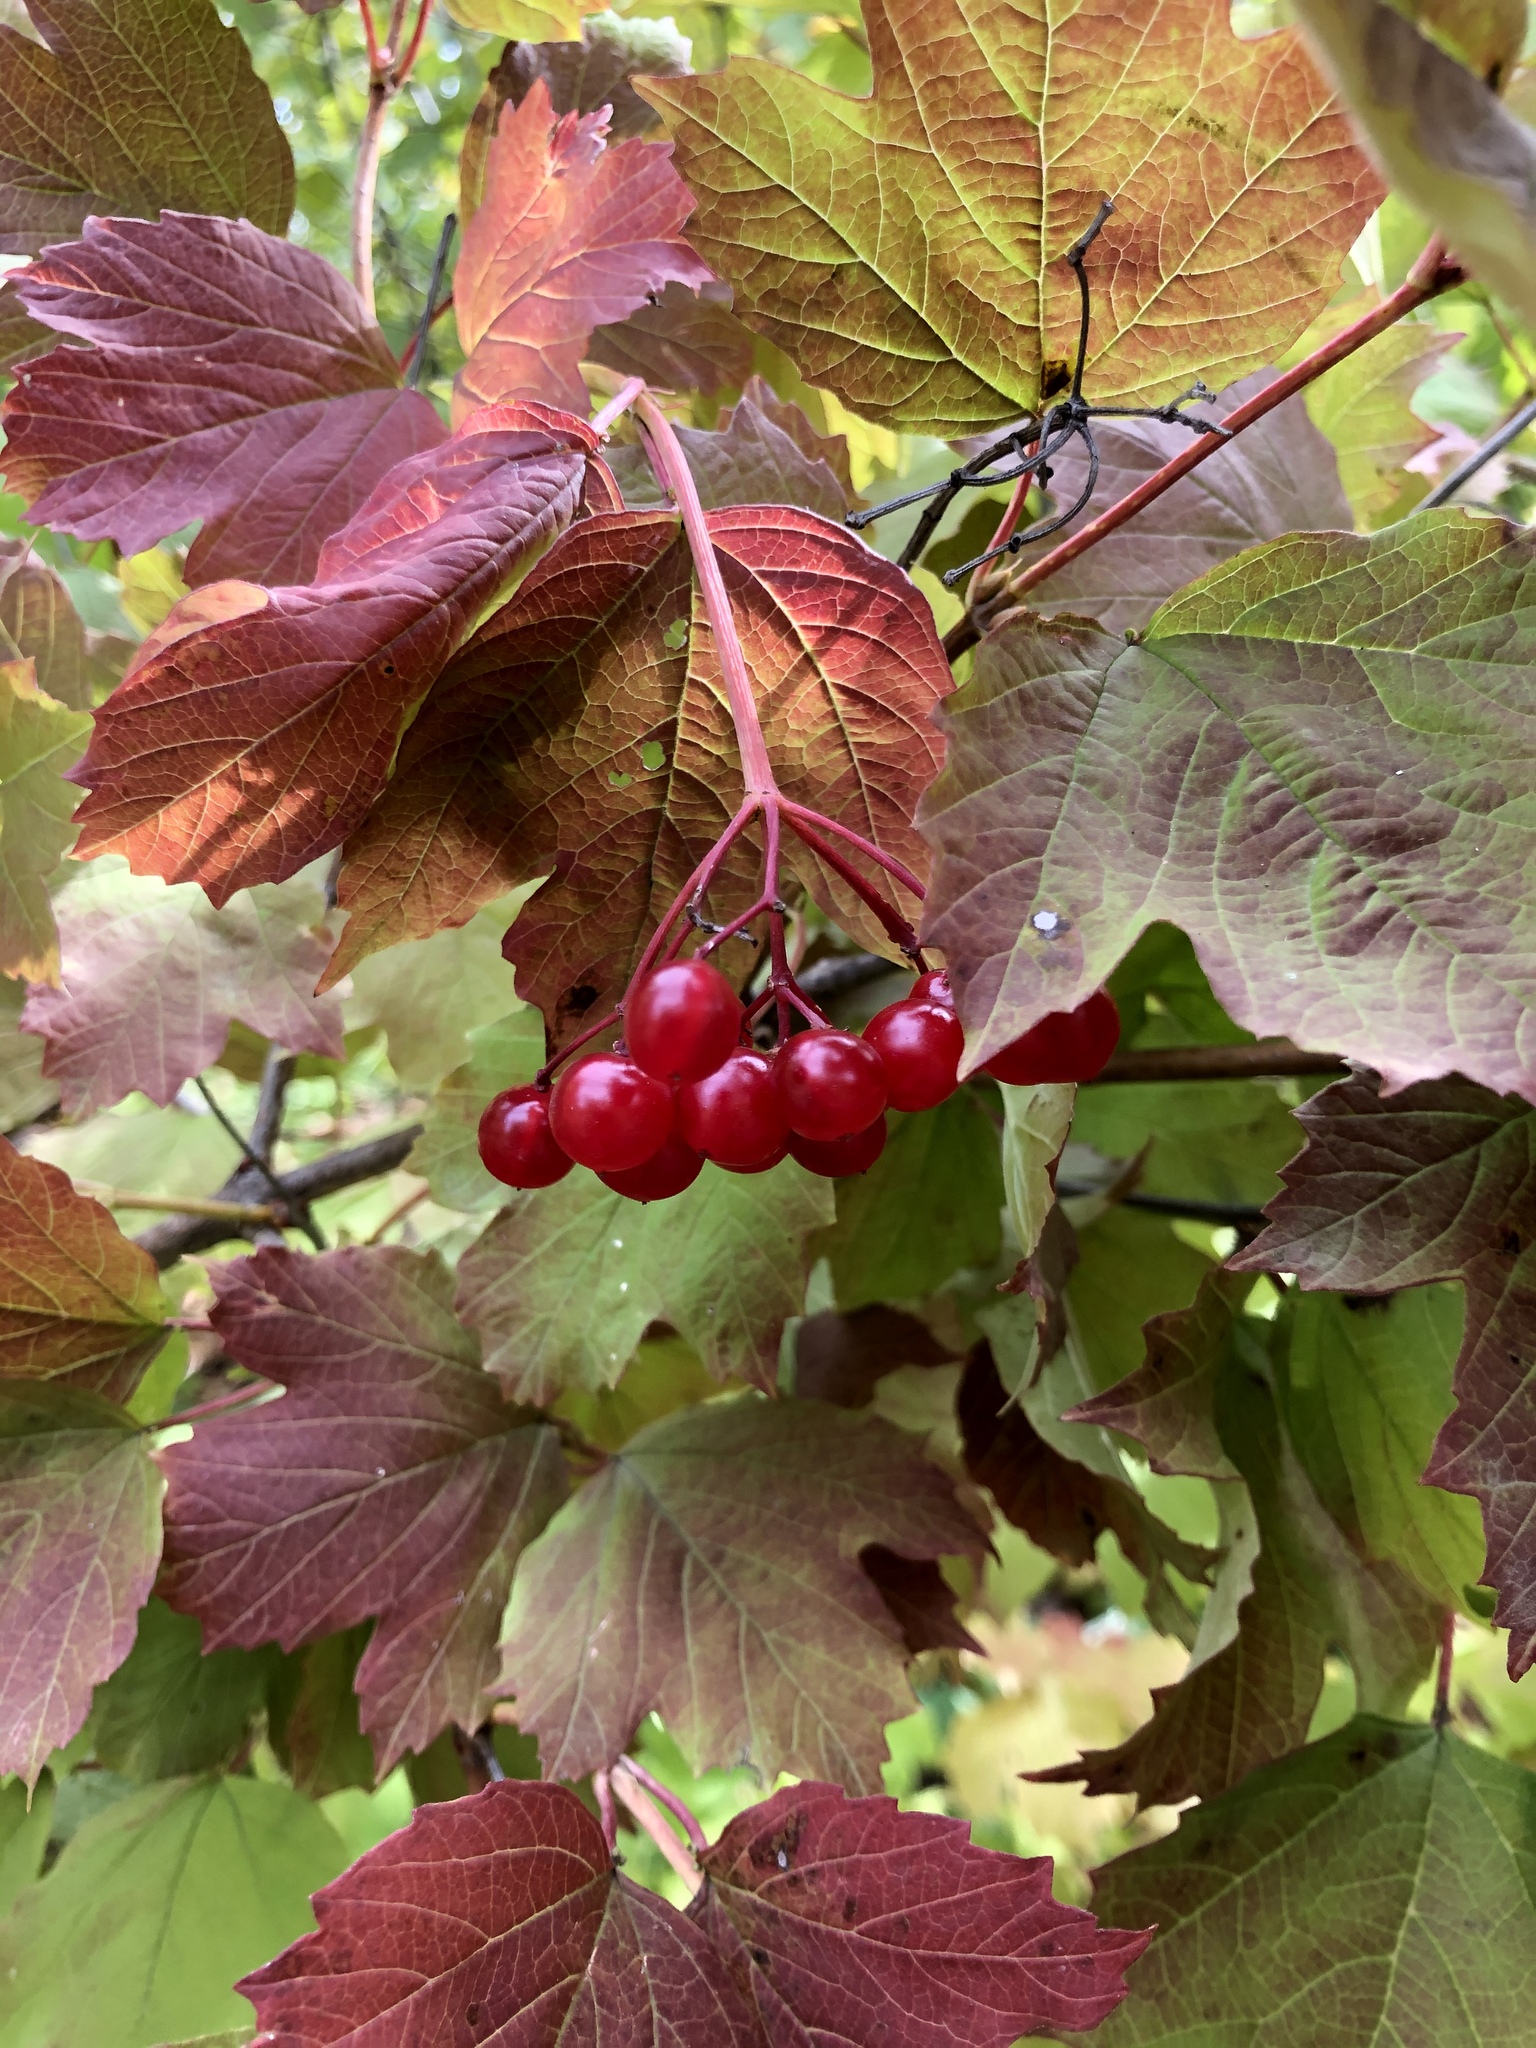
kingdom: Plantae
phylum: Tracheophyta
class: Magnoliopsida
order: Dipsacales
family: Viburnaceae
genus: Viburnum
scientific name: Viburnum opulus
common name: Guelder-rose
